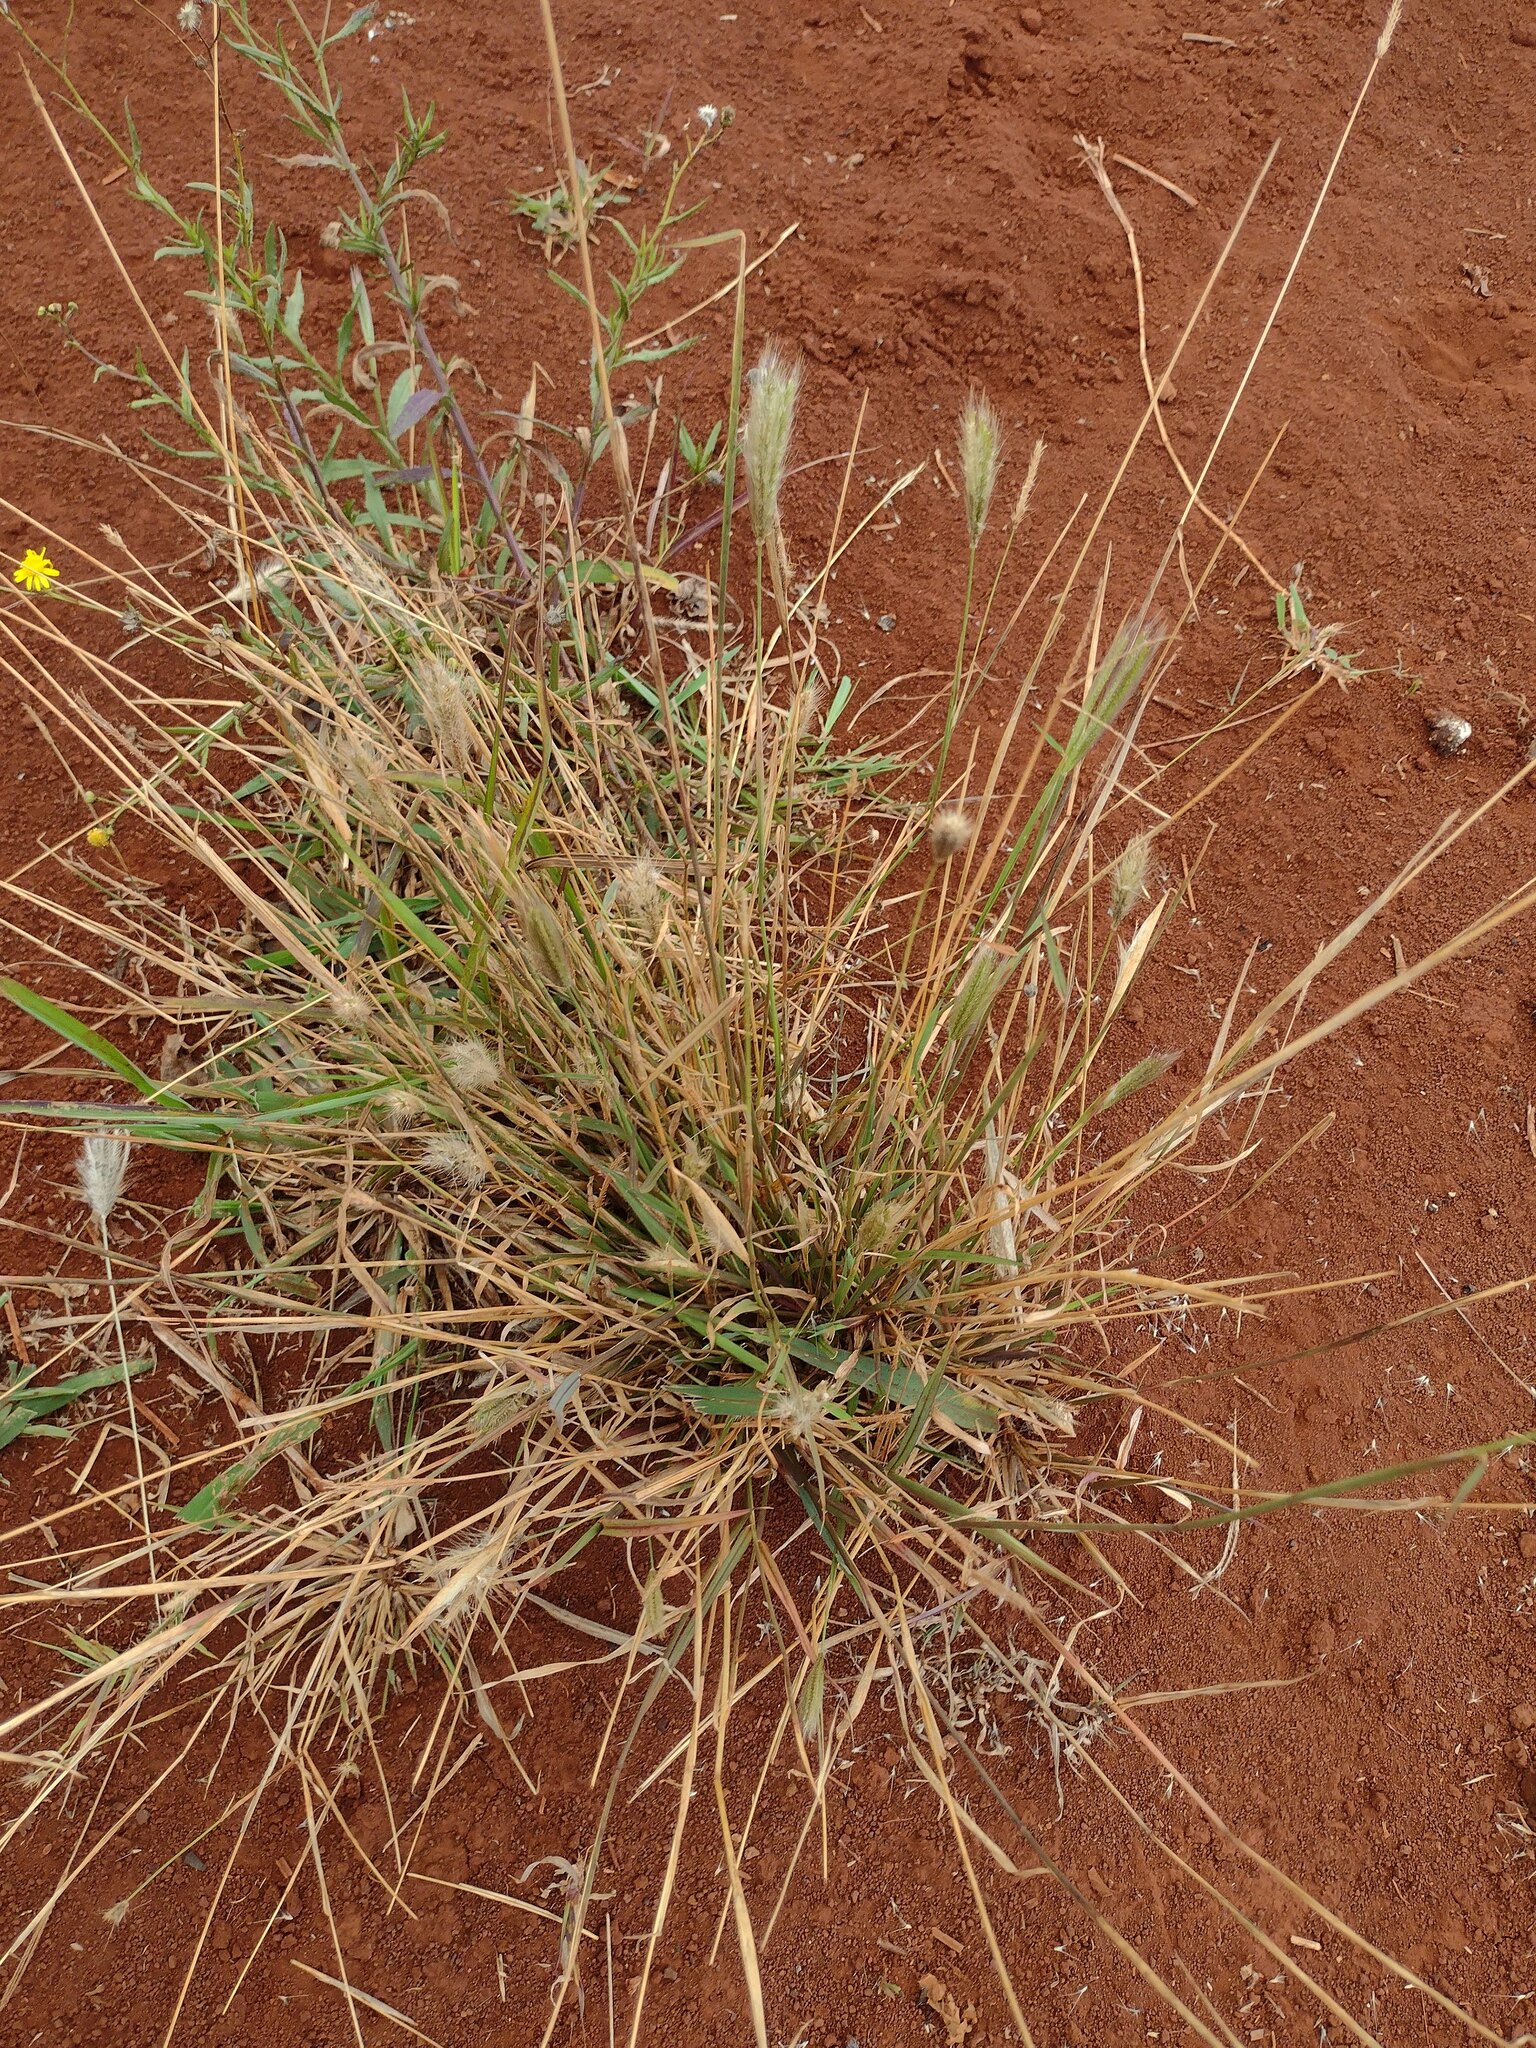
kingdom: Plantae
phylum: Tracheophyta
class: Liliopsida
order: Poales
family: Poaceae
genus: Chloris
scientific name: Chloris virgata
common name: Feathery rhodes-grass
